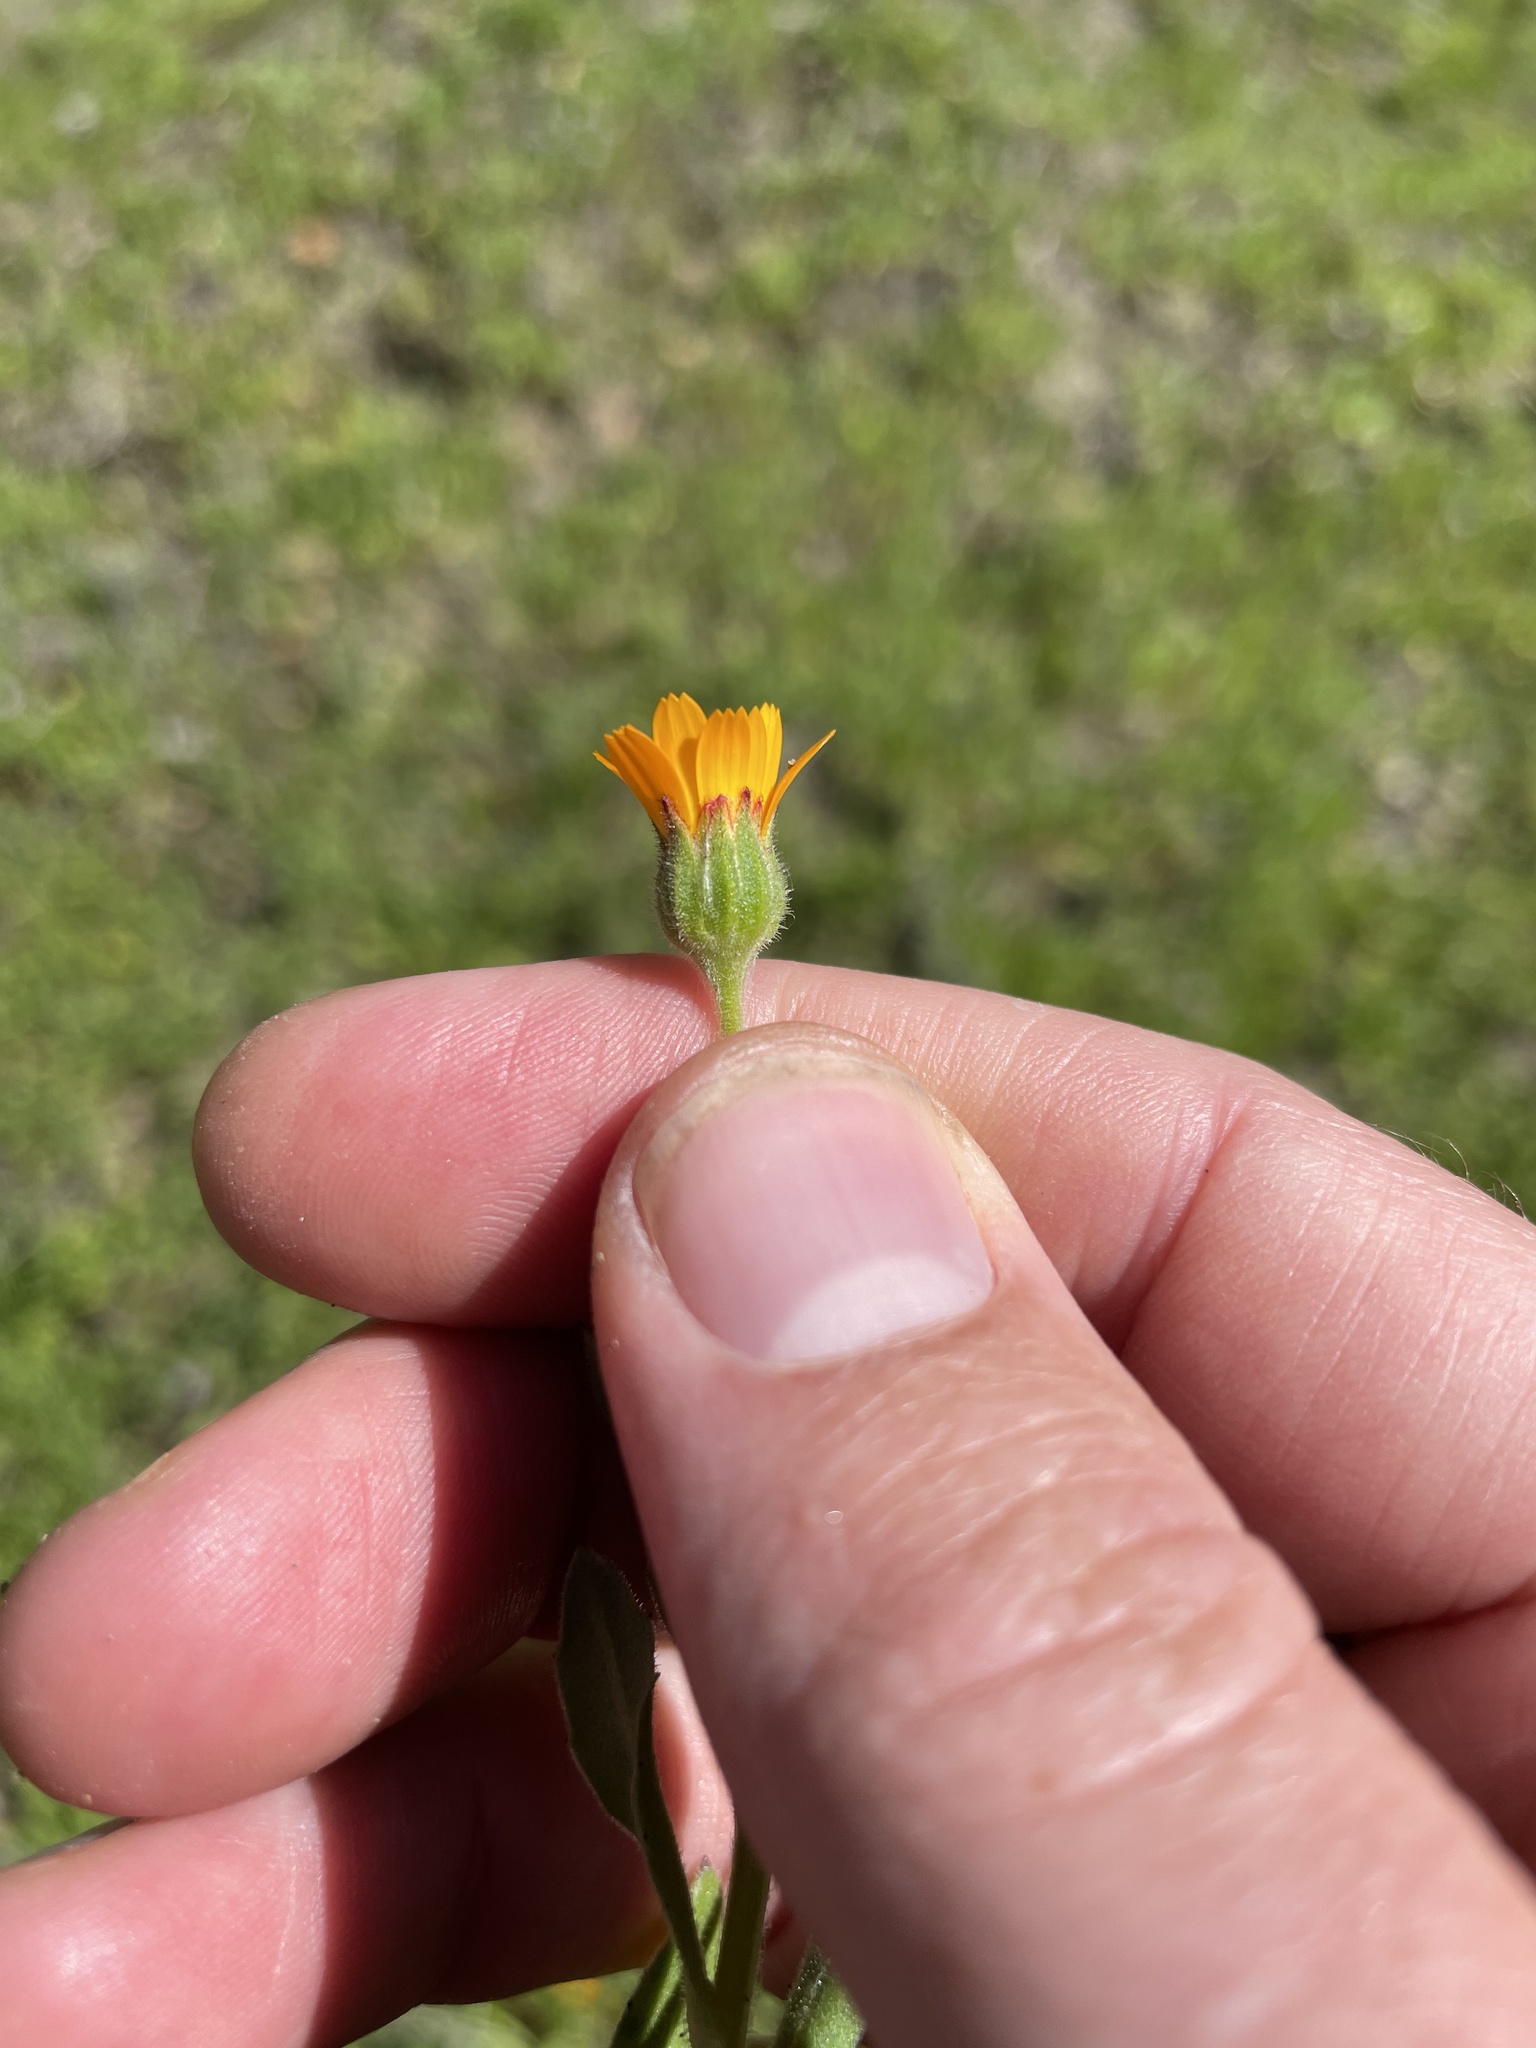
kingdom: Plantae
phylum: Tracheophyta
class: Magnoliopsida
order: Asterales
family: Asteraceae
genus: Calendula
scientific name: Calendula arvensis
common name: Field marigold
